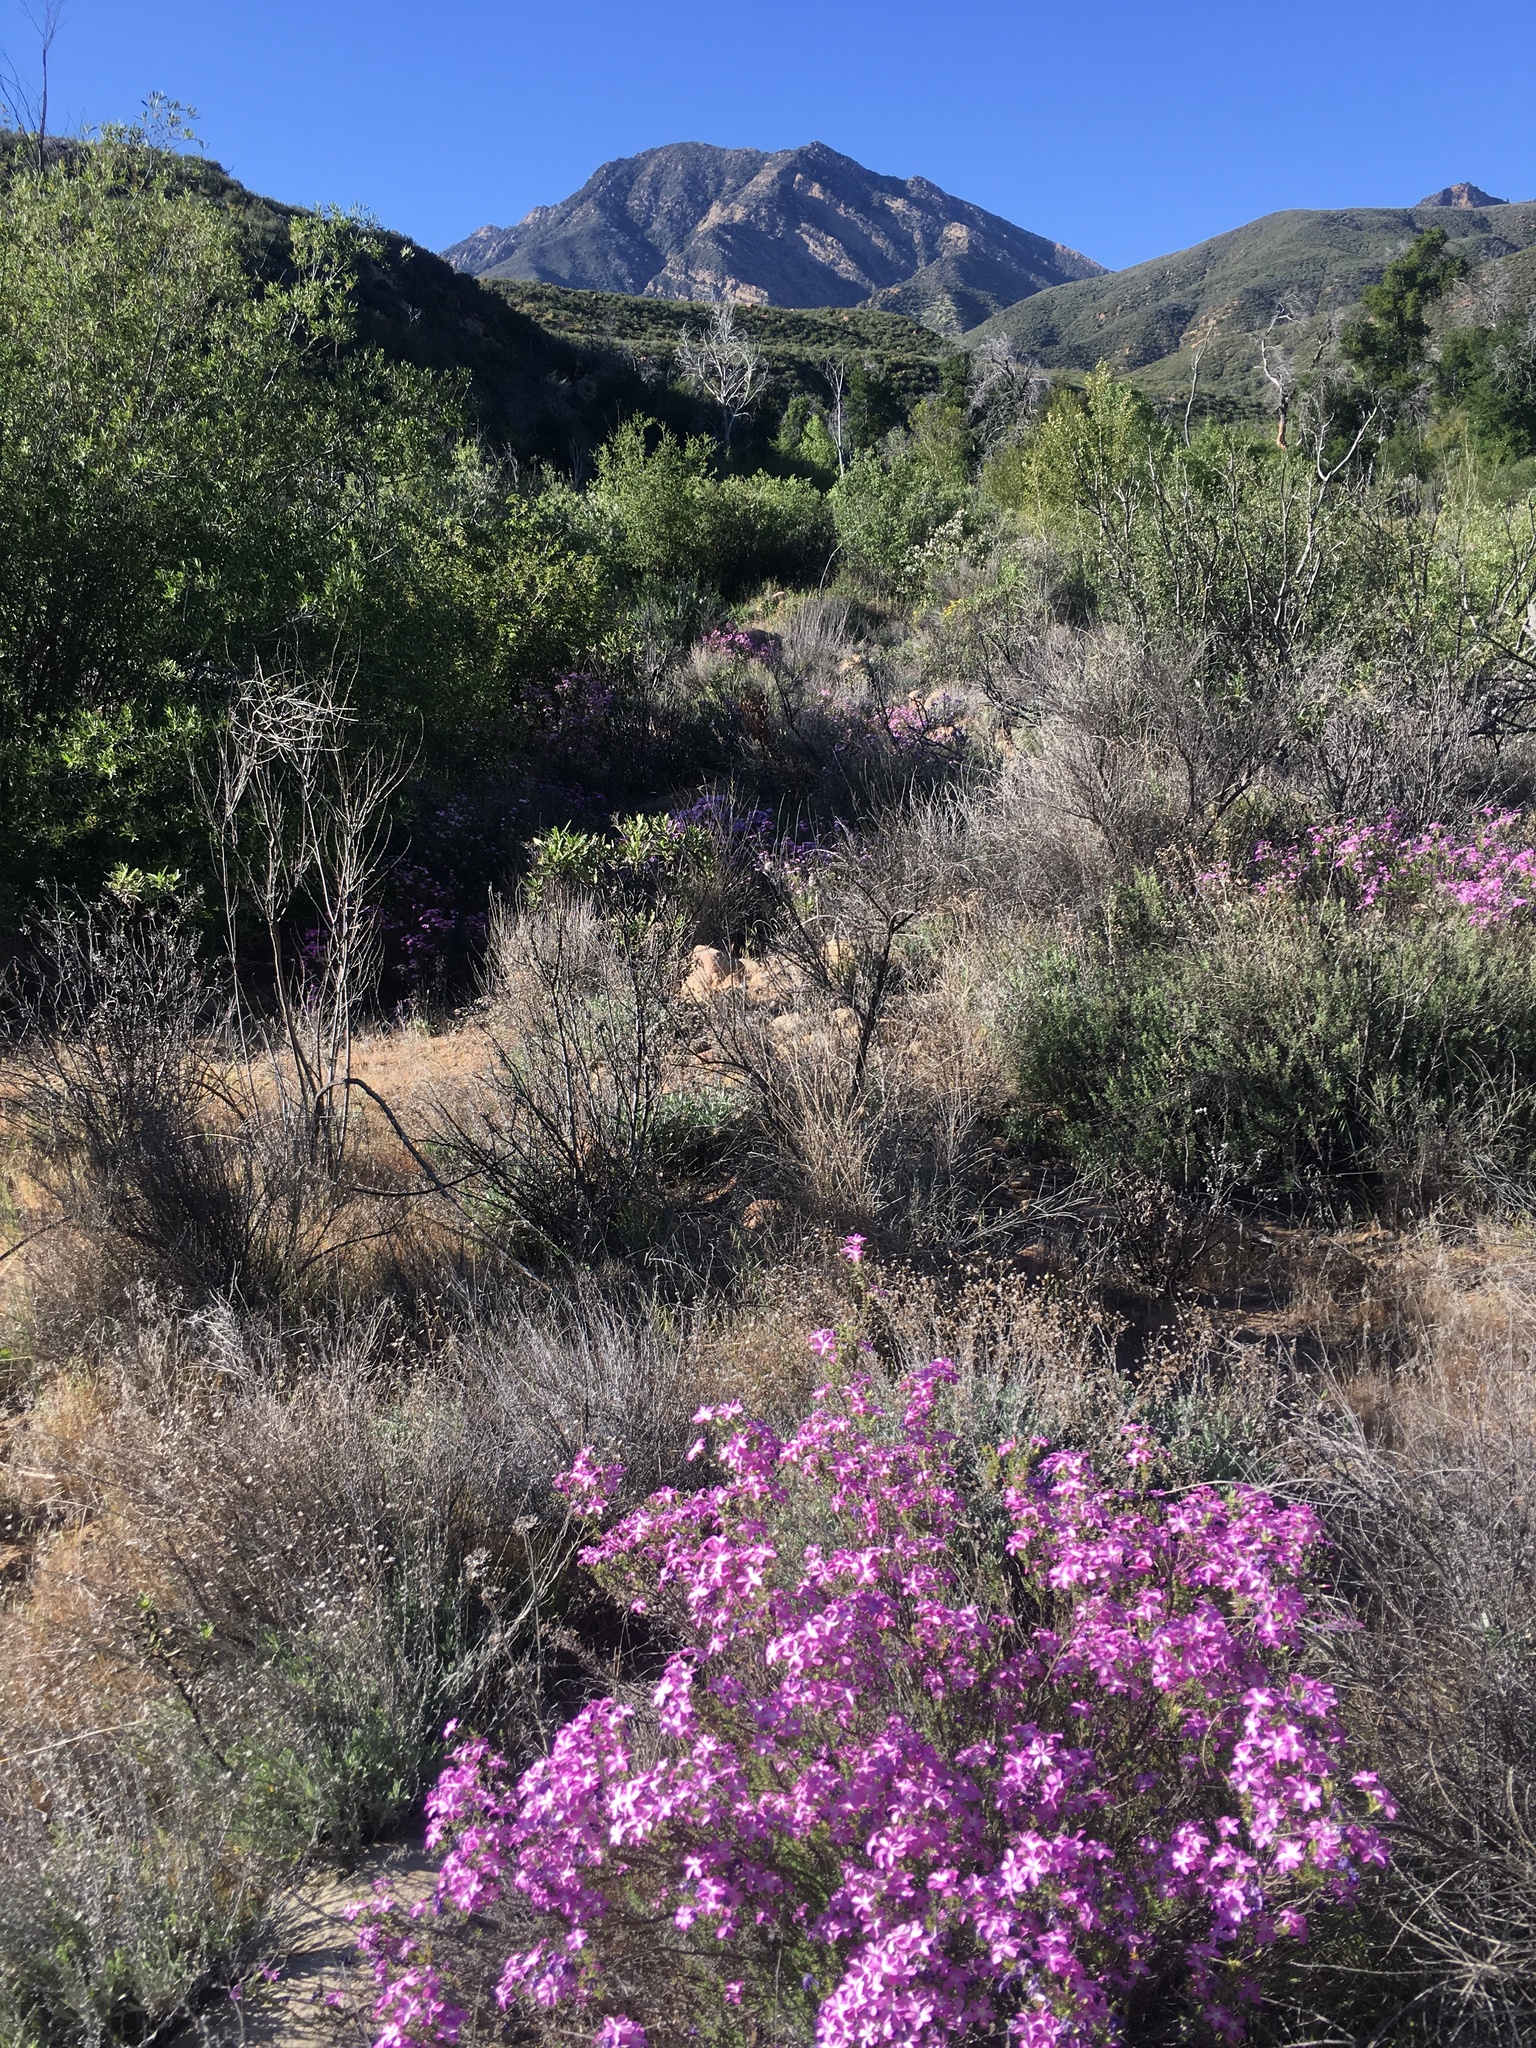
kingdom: Plantae
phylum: Tracheophyta
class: Magnoliopsida
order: Ericales
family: Polemoniaceae
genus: Linanthus
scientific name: Linanthus californicus
